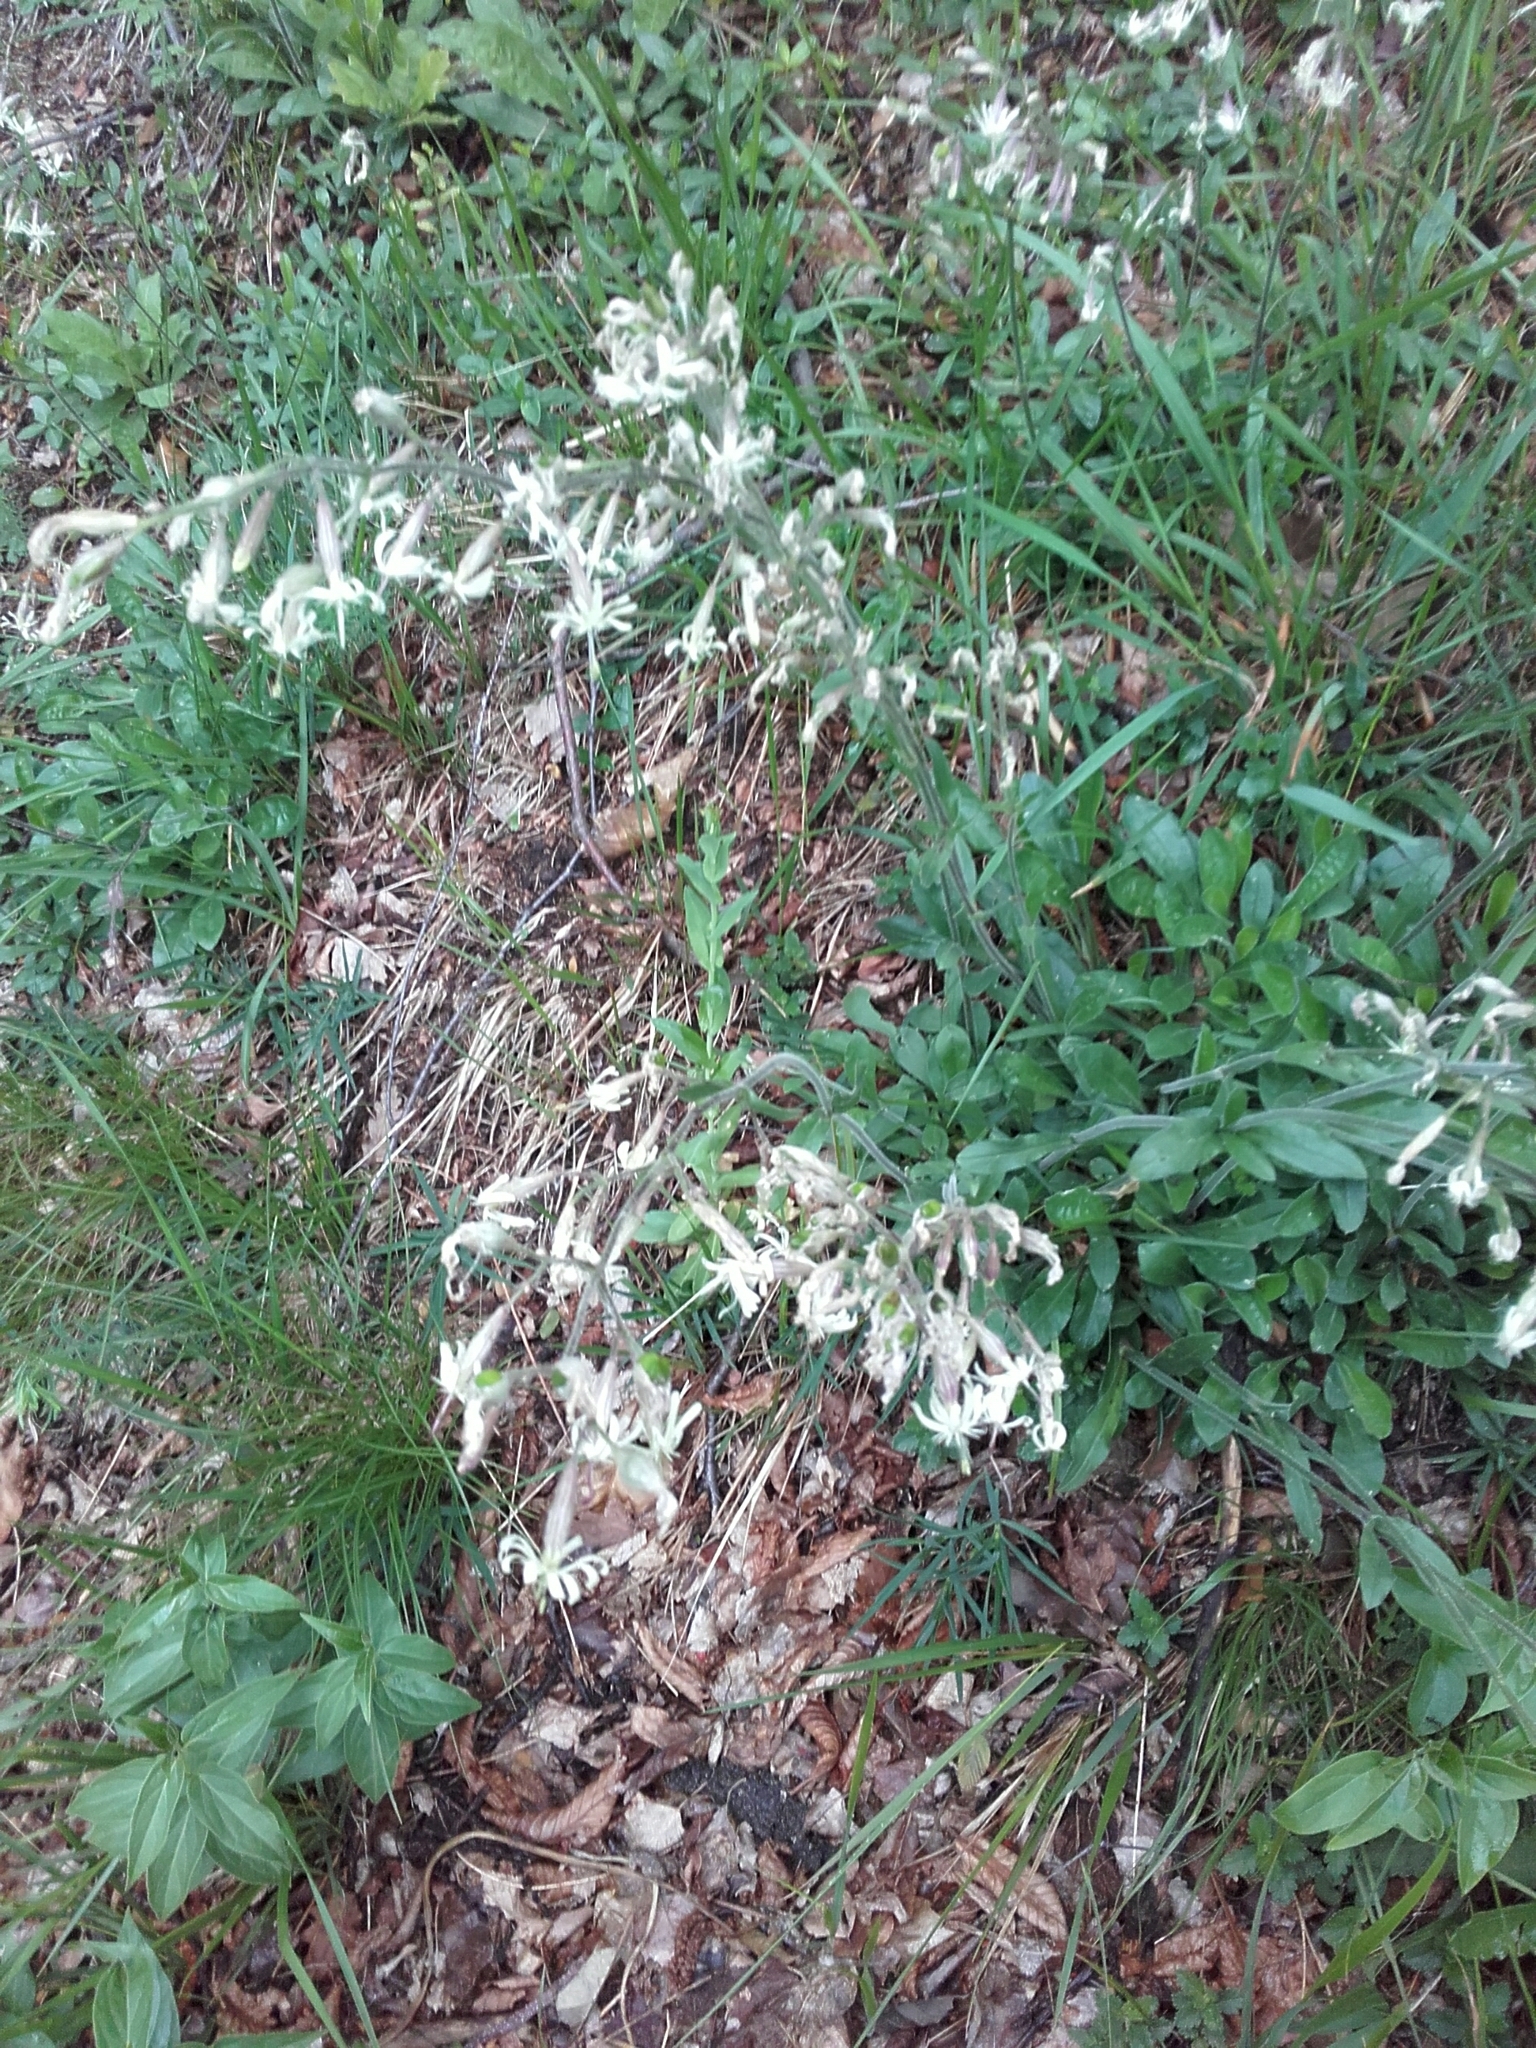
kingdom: Plantae
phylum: Tracheophyta
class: Magnoliopsida
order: Caryophyllales
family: Caryophyllaceae
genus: Silene
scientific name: Silene nutans
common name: Nottingham catchfly
